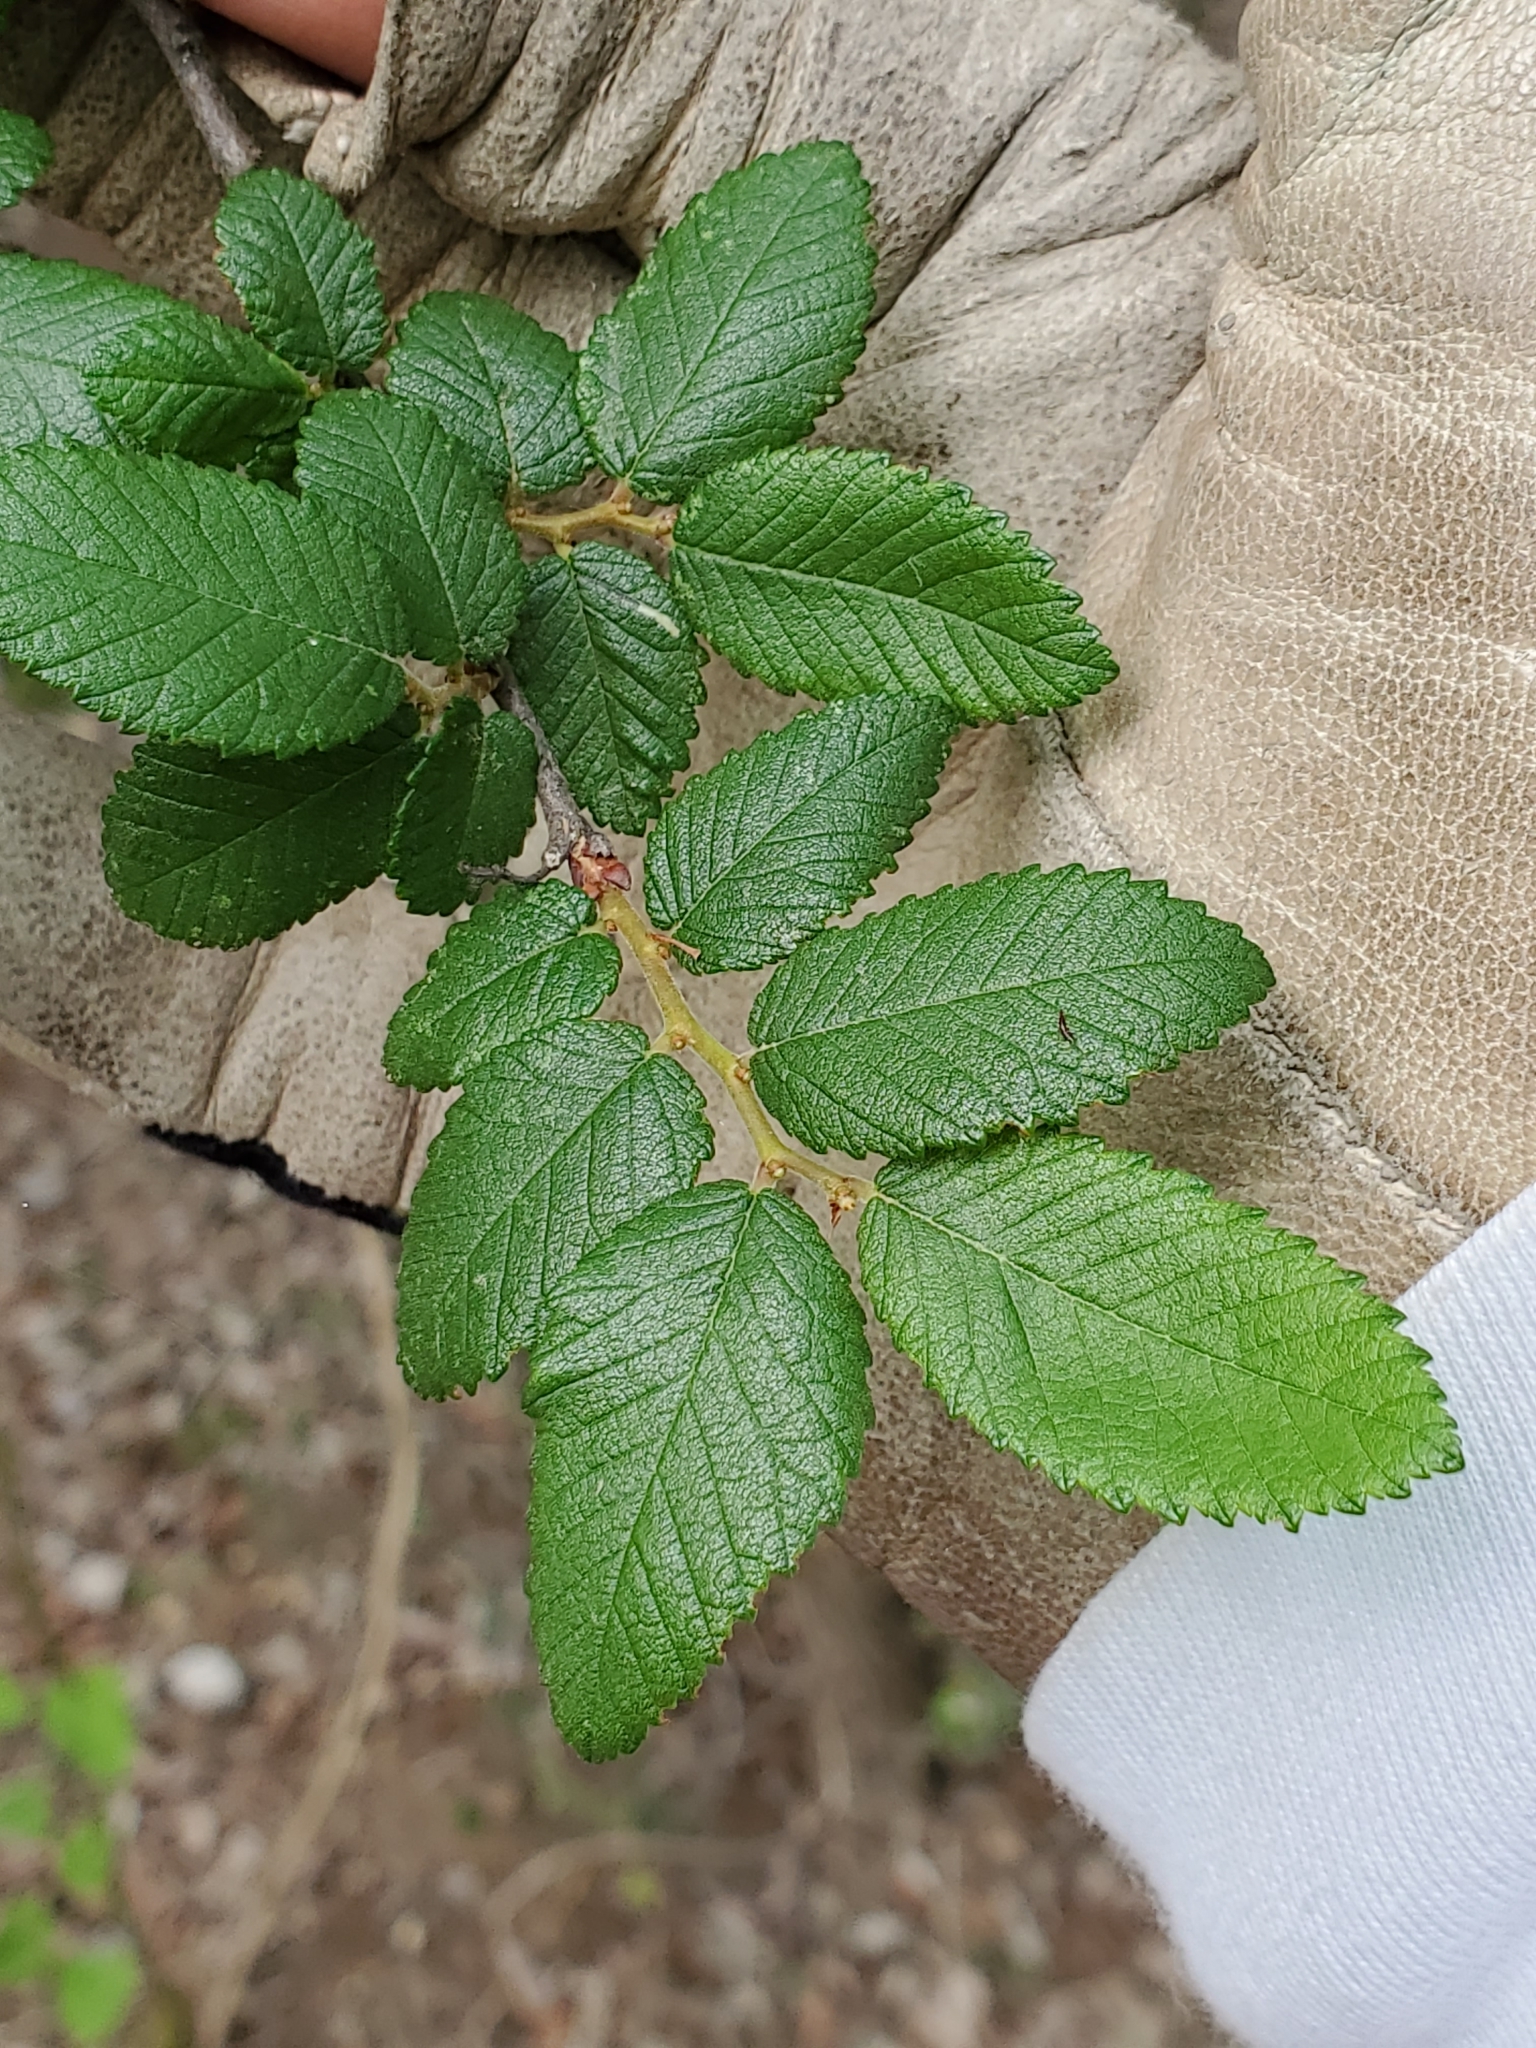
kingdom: Plantae
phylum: Tracheophyta
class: Magnoliopsida
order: Rosales
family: Ulmaceae
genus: Ulmus
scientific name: Ulmus crassifolia
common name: Basket elm
